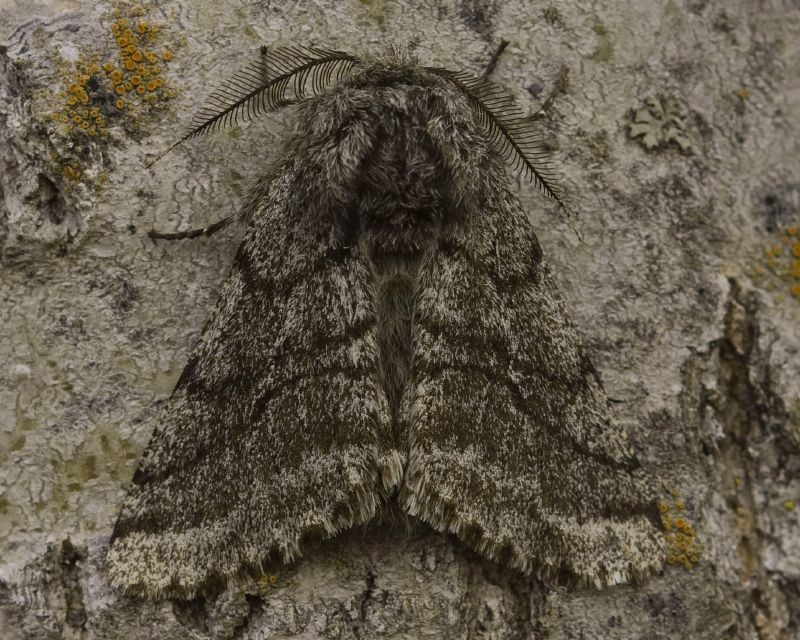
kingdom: Animalia
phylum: Arthropoda
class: Insecta
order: Lepidoptera
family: Geometridae
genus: Lycia
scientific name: Lycia ursaria
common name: Stout spanworm
